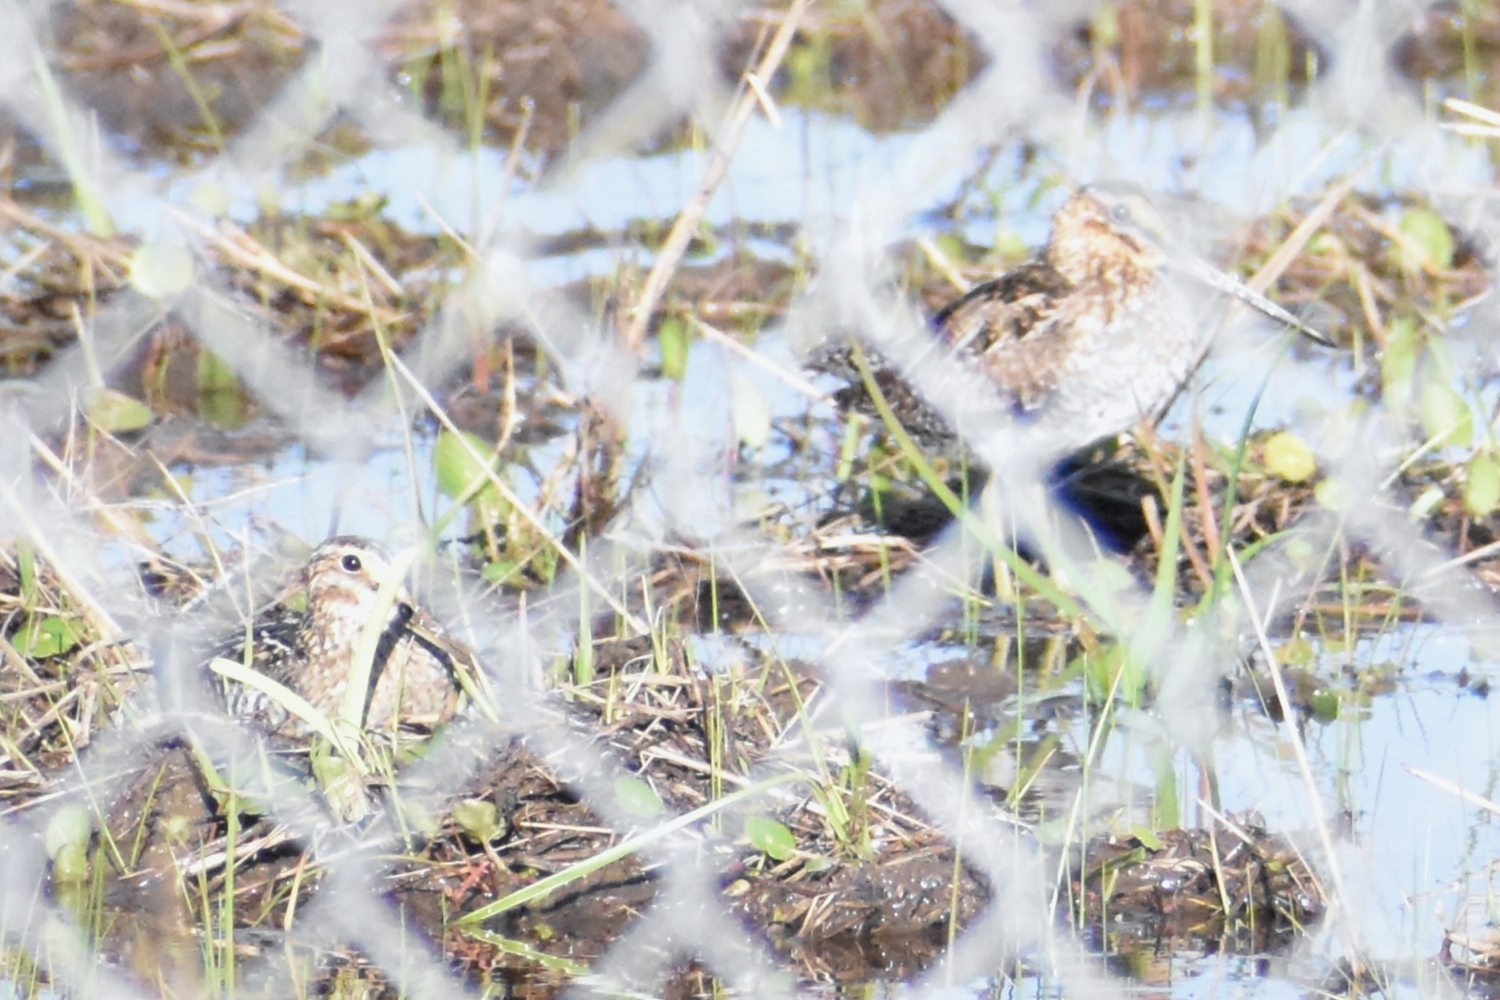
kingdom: Animalia
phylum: Chordata
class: Aves
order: Charadriiformes
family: Scolopacidae
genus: Gallinago
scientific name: Gallinago delicata
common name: Wilson's snipe
